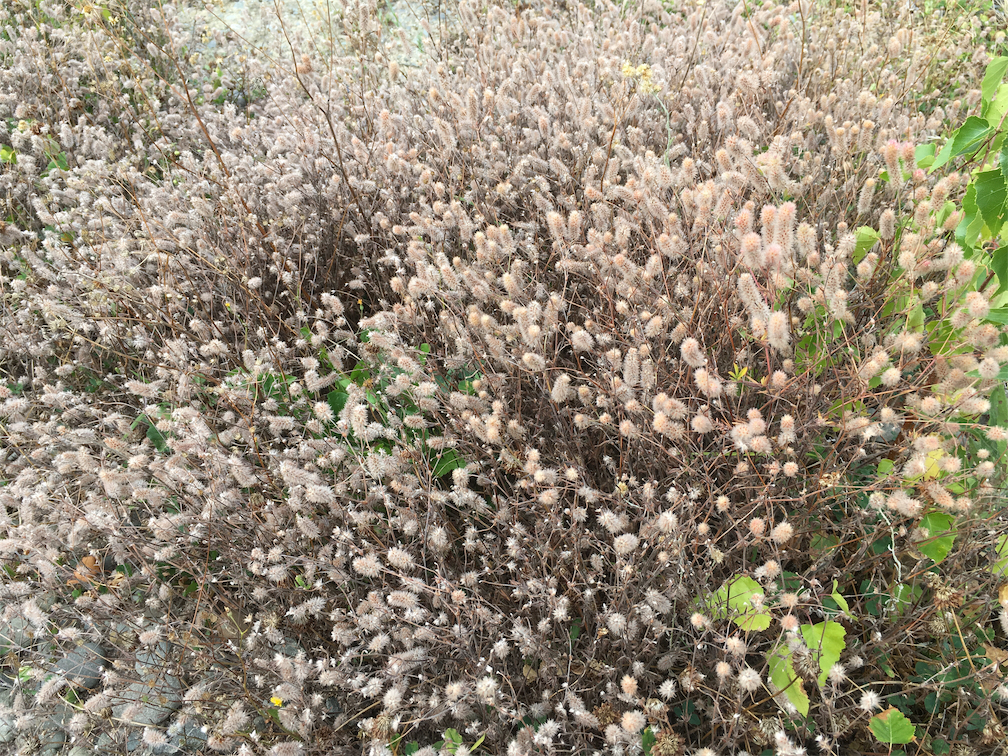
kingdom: Plantae
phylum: Tracheophyta
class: Magnoliopsida
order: Fabales
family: Fabaceae
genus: Trifolium
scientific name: Trifolium arvense
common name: Hare's-foot clover
